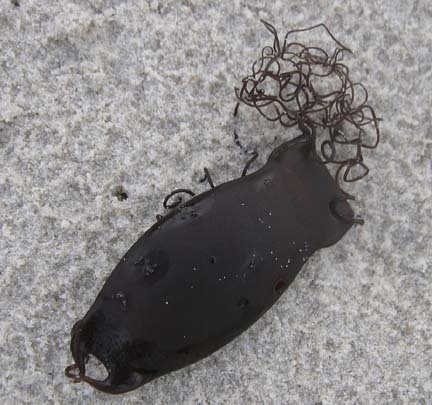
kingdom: Animalia
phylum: Chordata
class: Elasmobranchii
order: Carcharhiniformes
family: Scyliorhinidae
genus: Haploblepharus
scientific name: Haploblepharus pictus
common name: Dark shyshark
